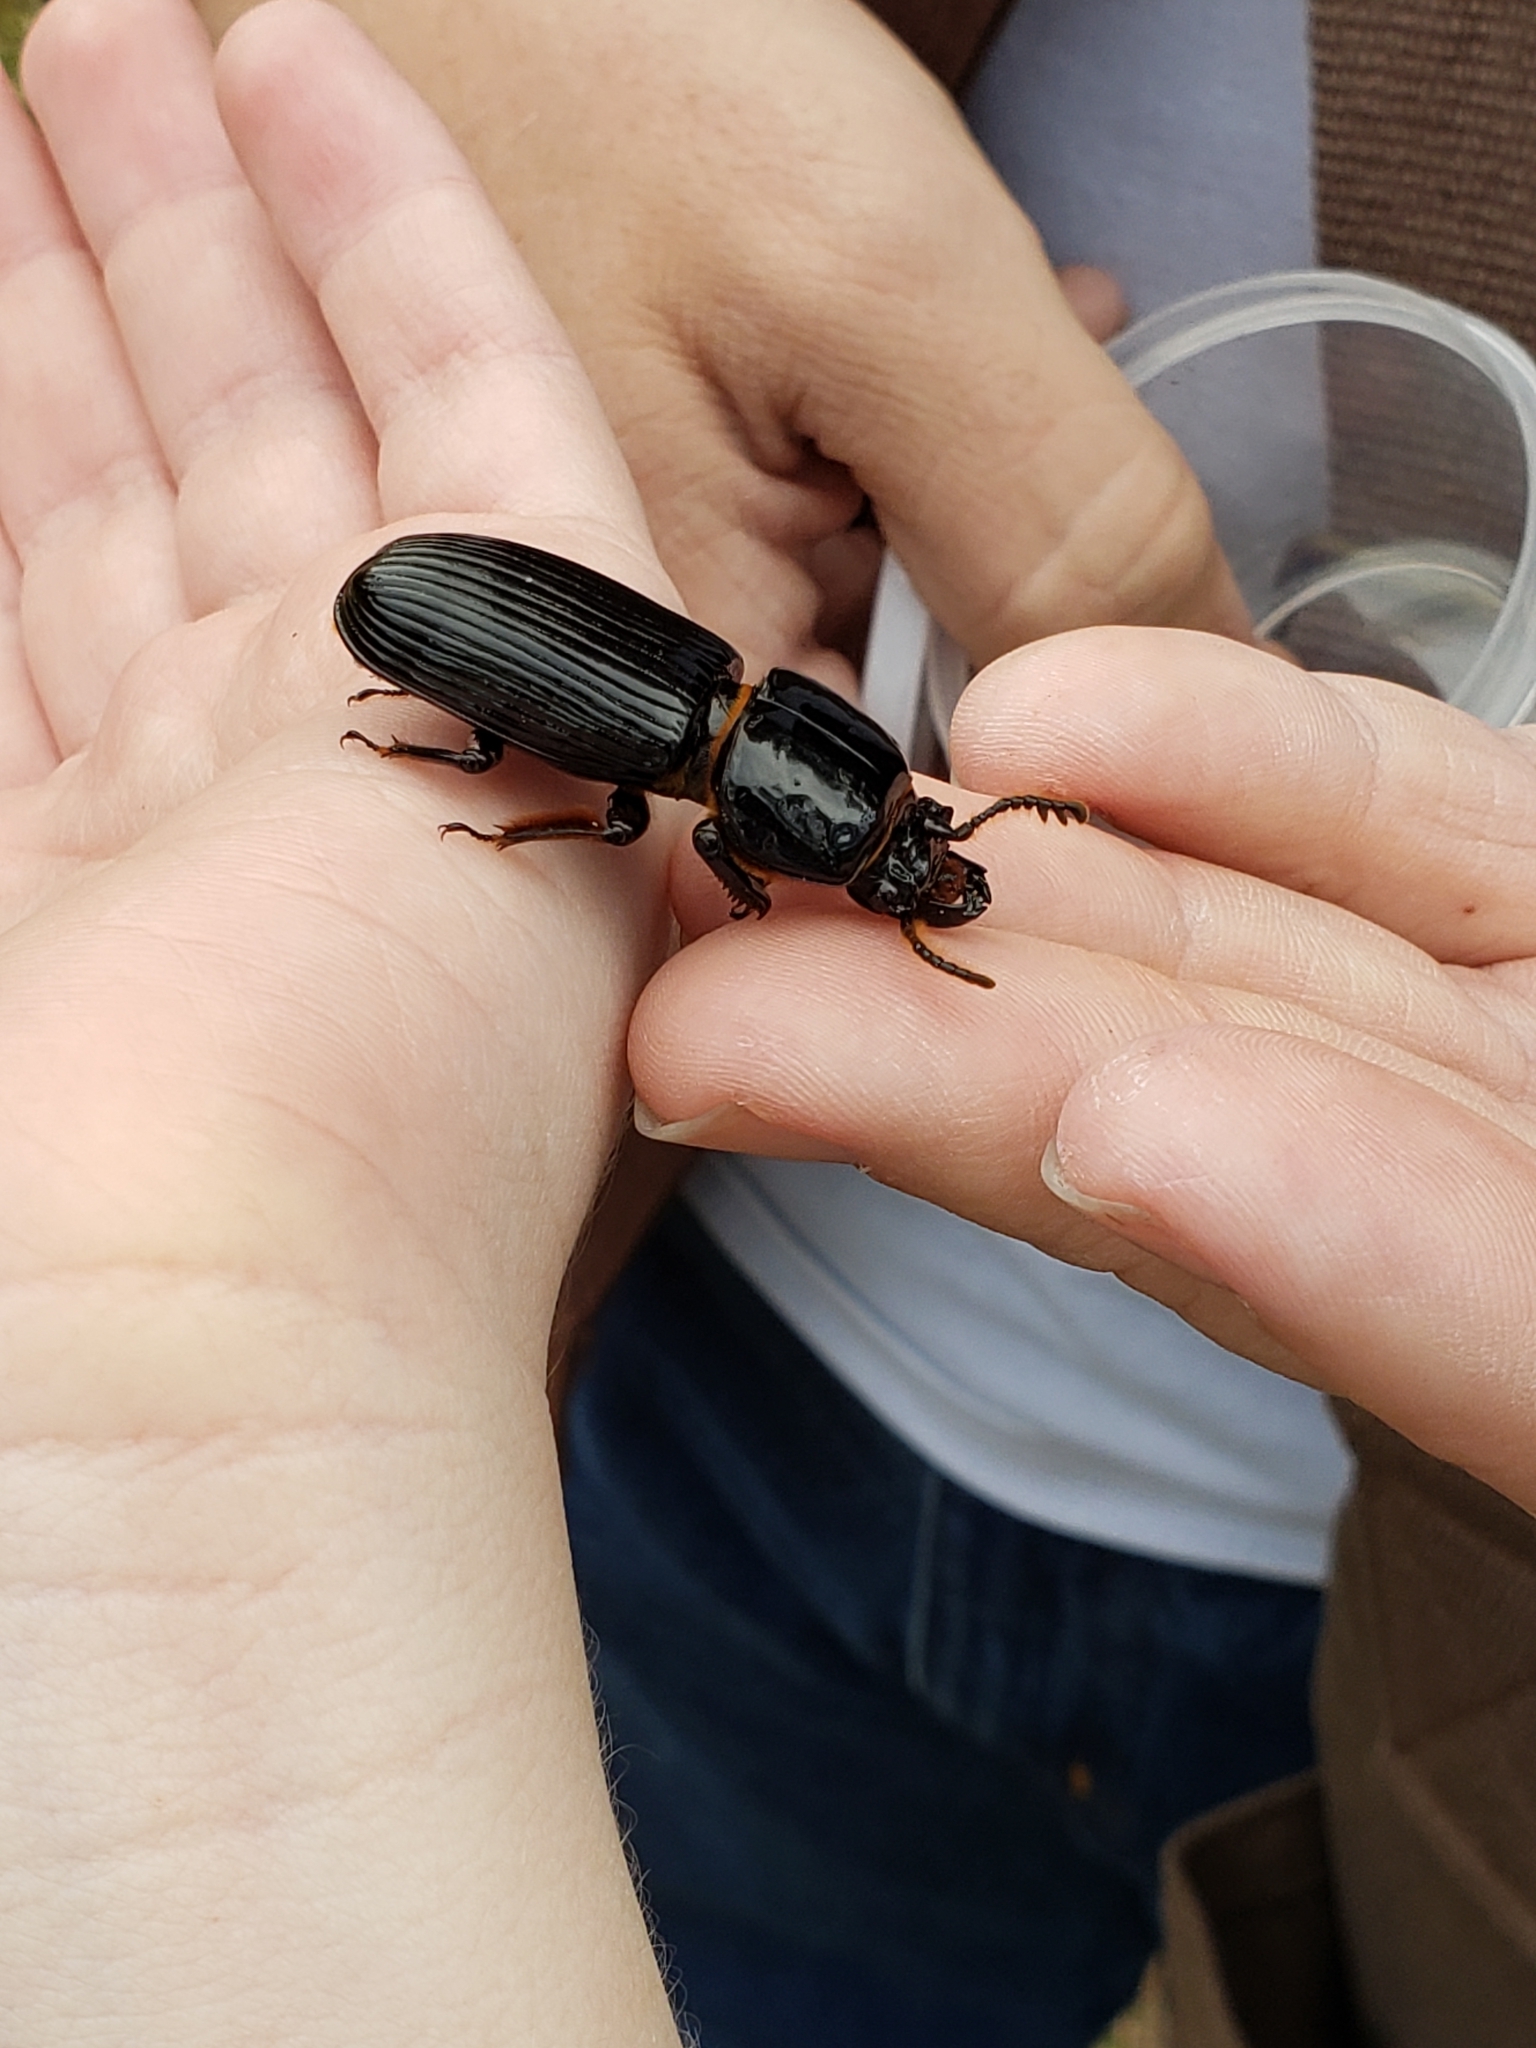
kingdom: Animalia
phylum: Arthropoda
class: Insecta
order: Coleoptera
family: Passalidae
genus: Odontotaenius
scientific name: Odontotaenius disjunctus
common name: Patent leather beetle
